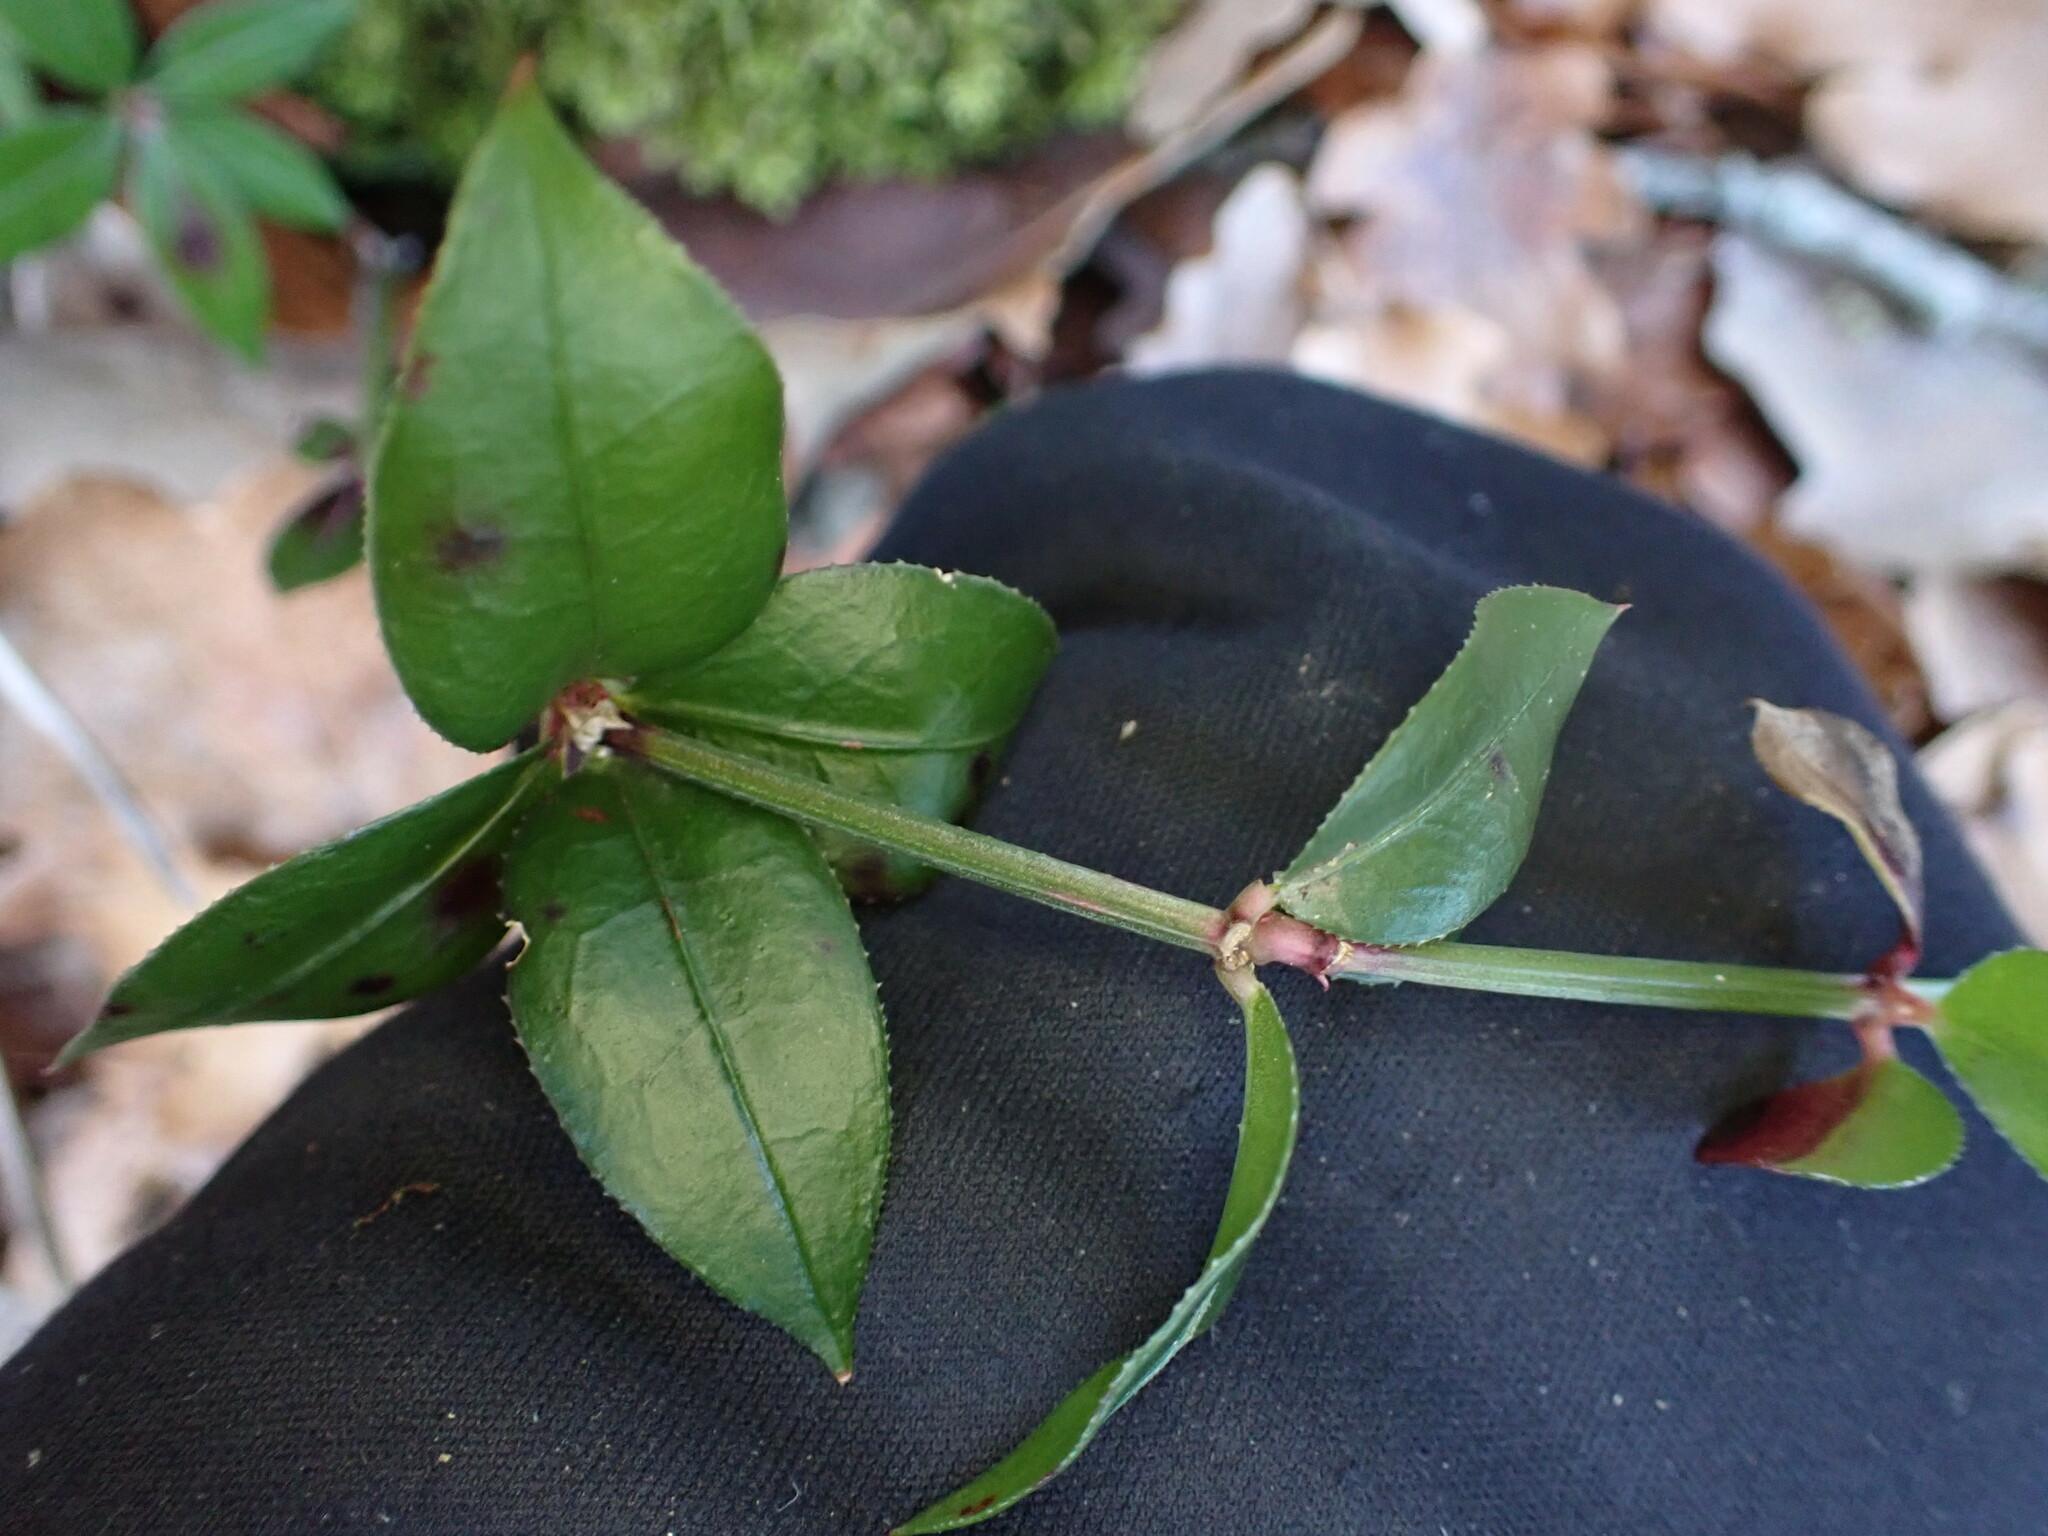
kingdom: Plantae
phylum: Tracheophyta
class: Magnoliopsida
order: Gentianales
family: Rubiaceae
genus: Rubia
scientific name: Rubia peregrina
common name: Wild madder
